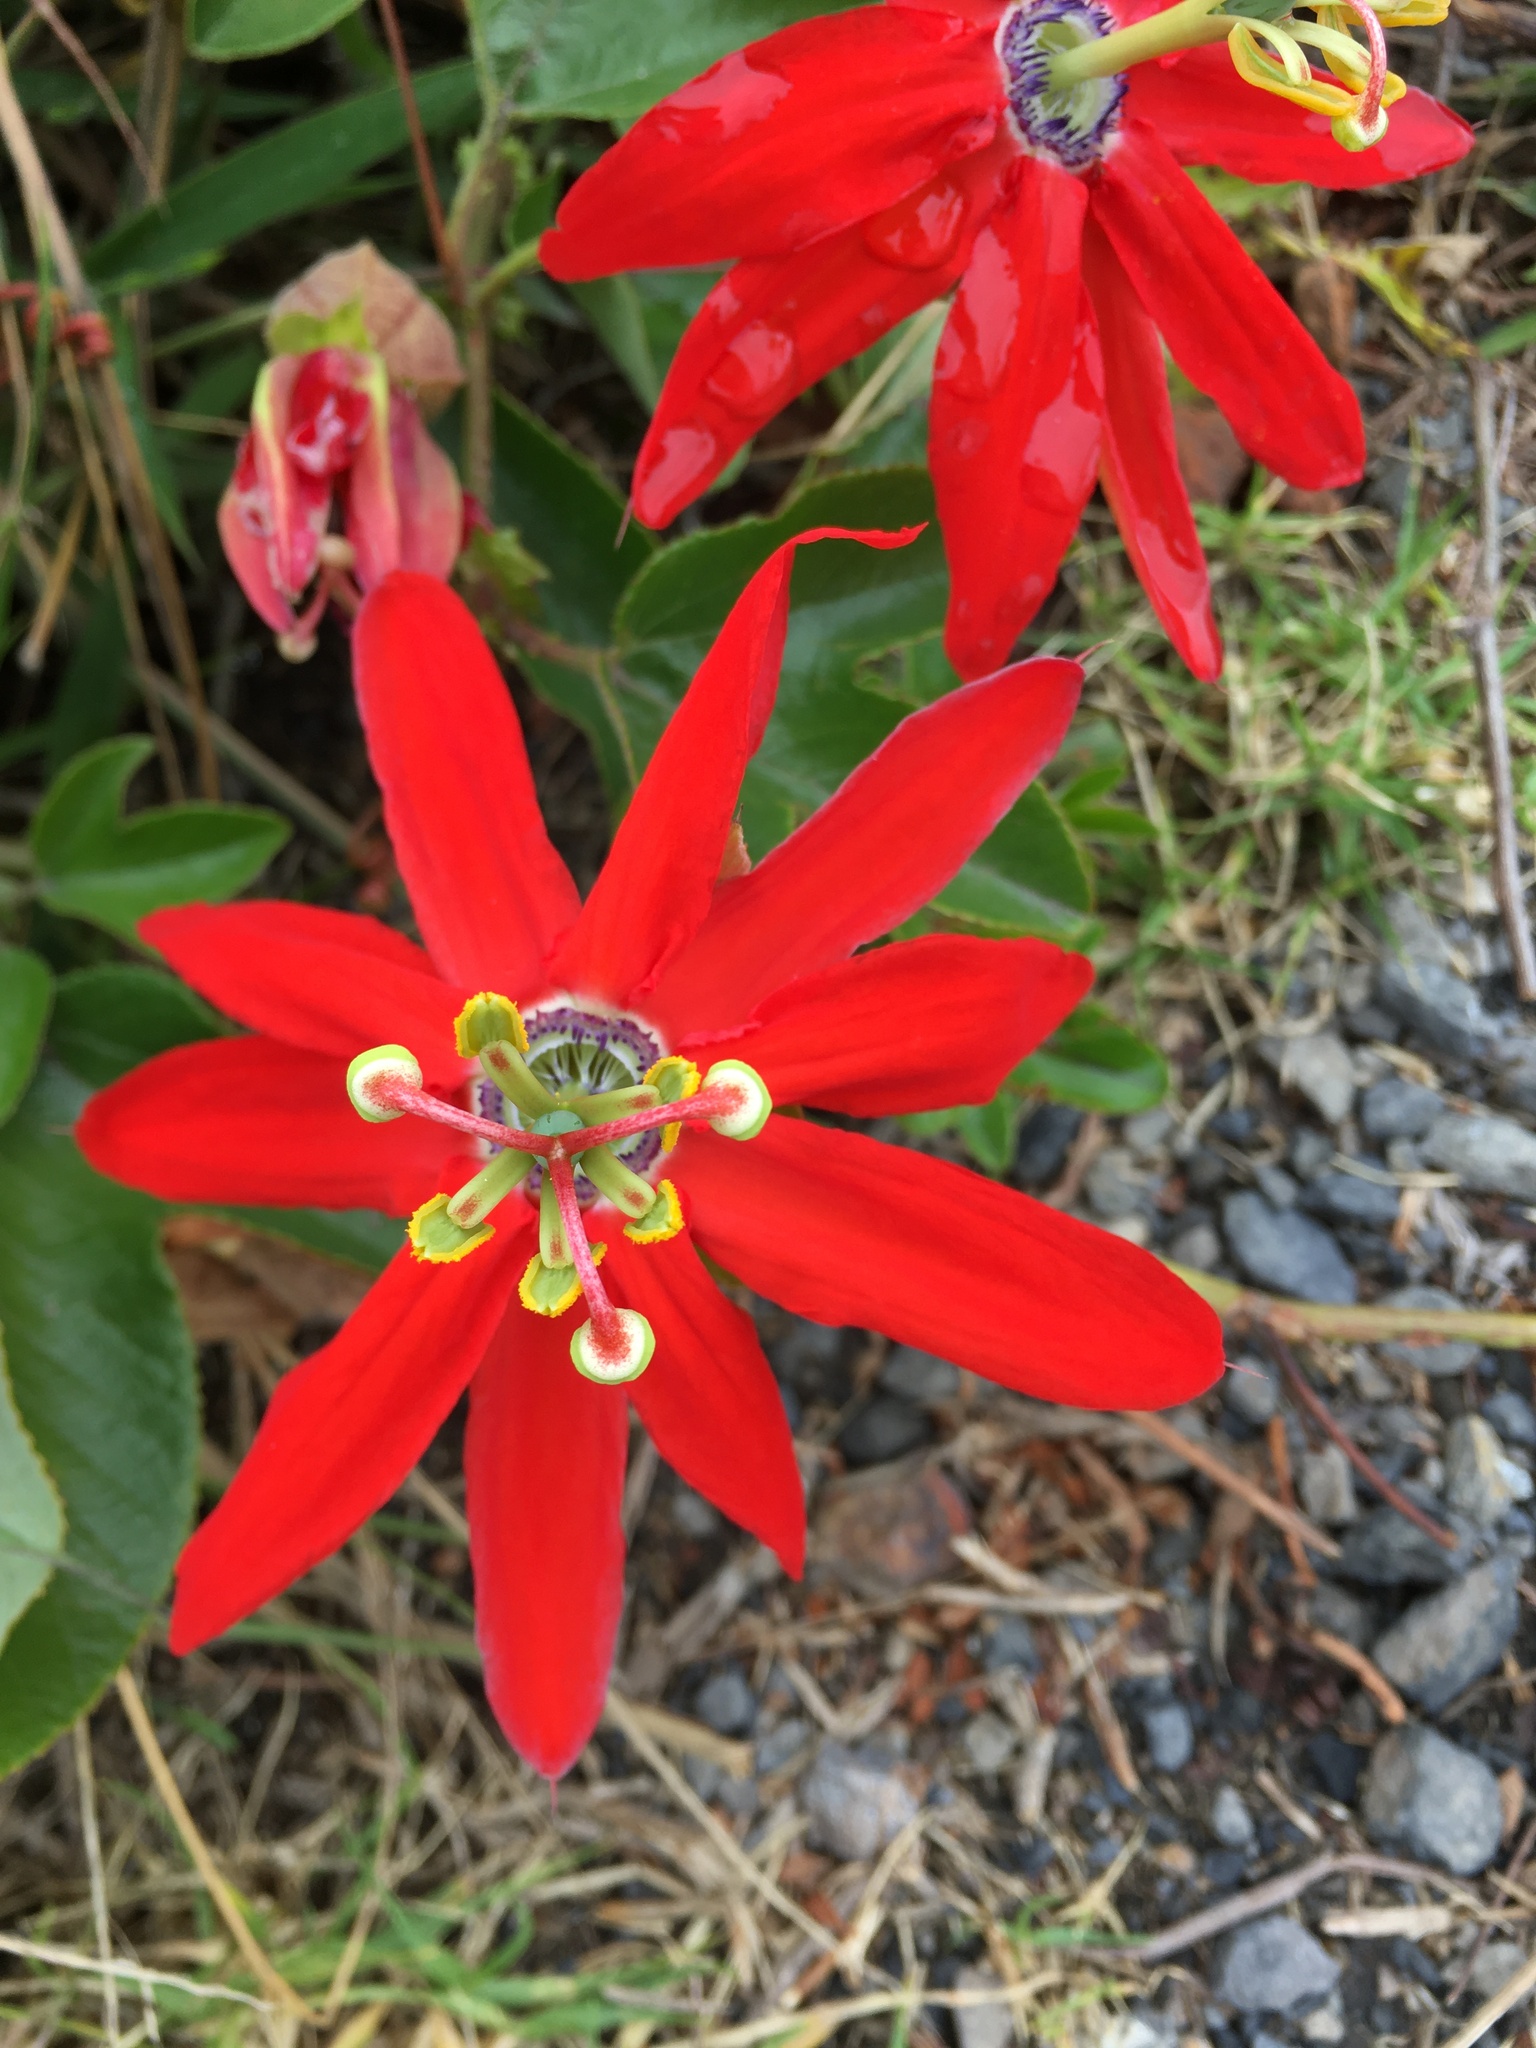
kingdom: Plantae
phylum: Tracheophyta
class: Magnoliopsida
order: Malpighiales
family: Passifloraceae
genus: Passiflora
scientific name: Passiflora manicata
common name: Red passionflower
